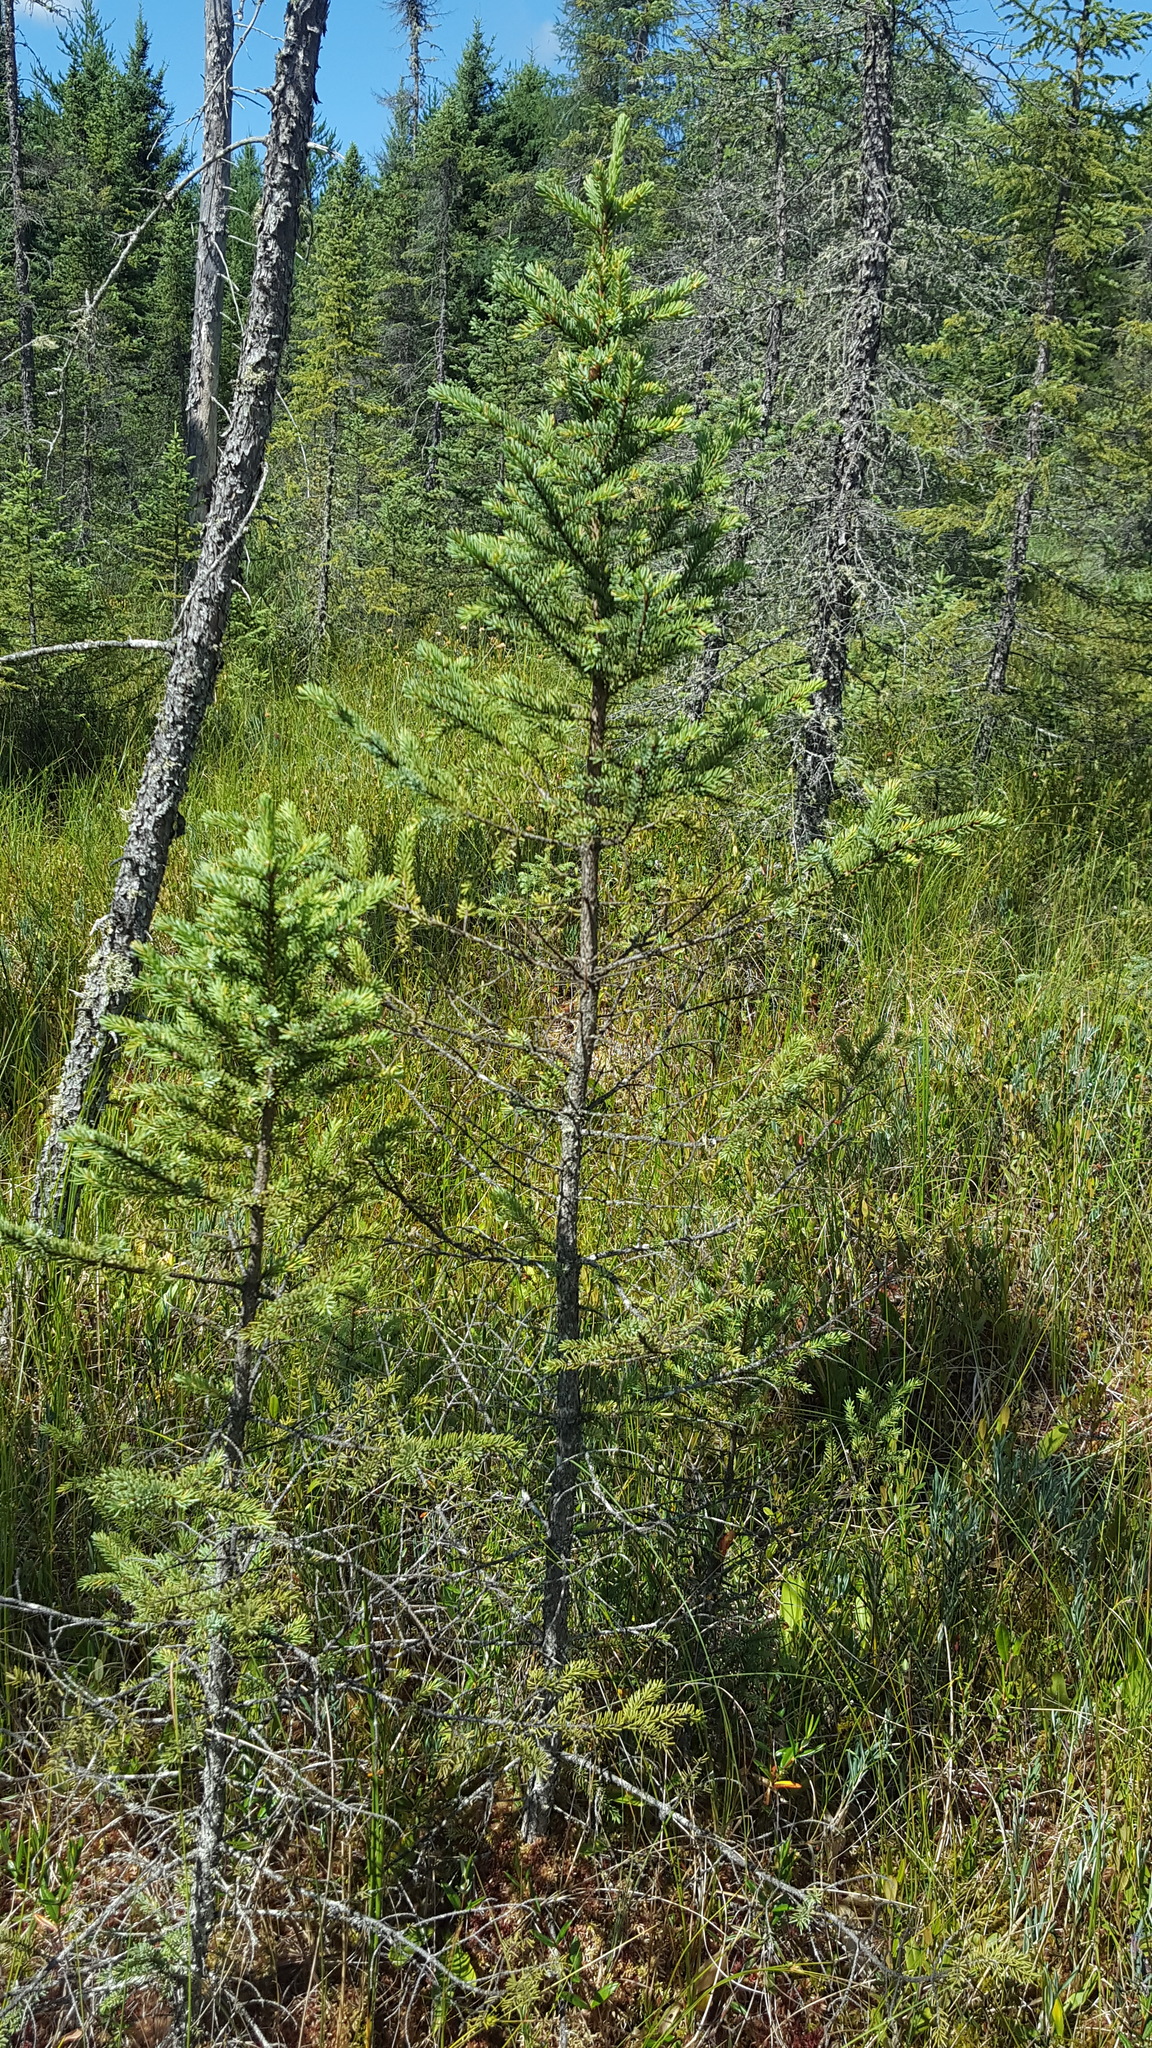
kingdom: Plantae
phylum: Tracheophyta
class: Pinopsida
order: Pinales
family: Pinaceae
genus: Picea
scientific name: Picea mariana
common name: Black spruce
